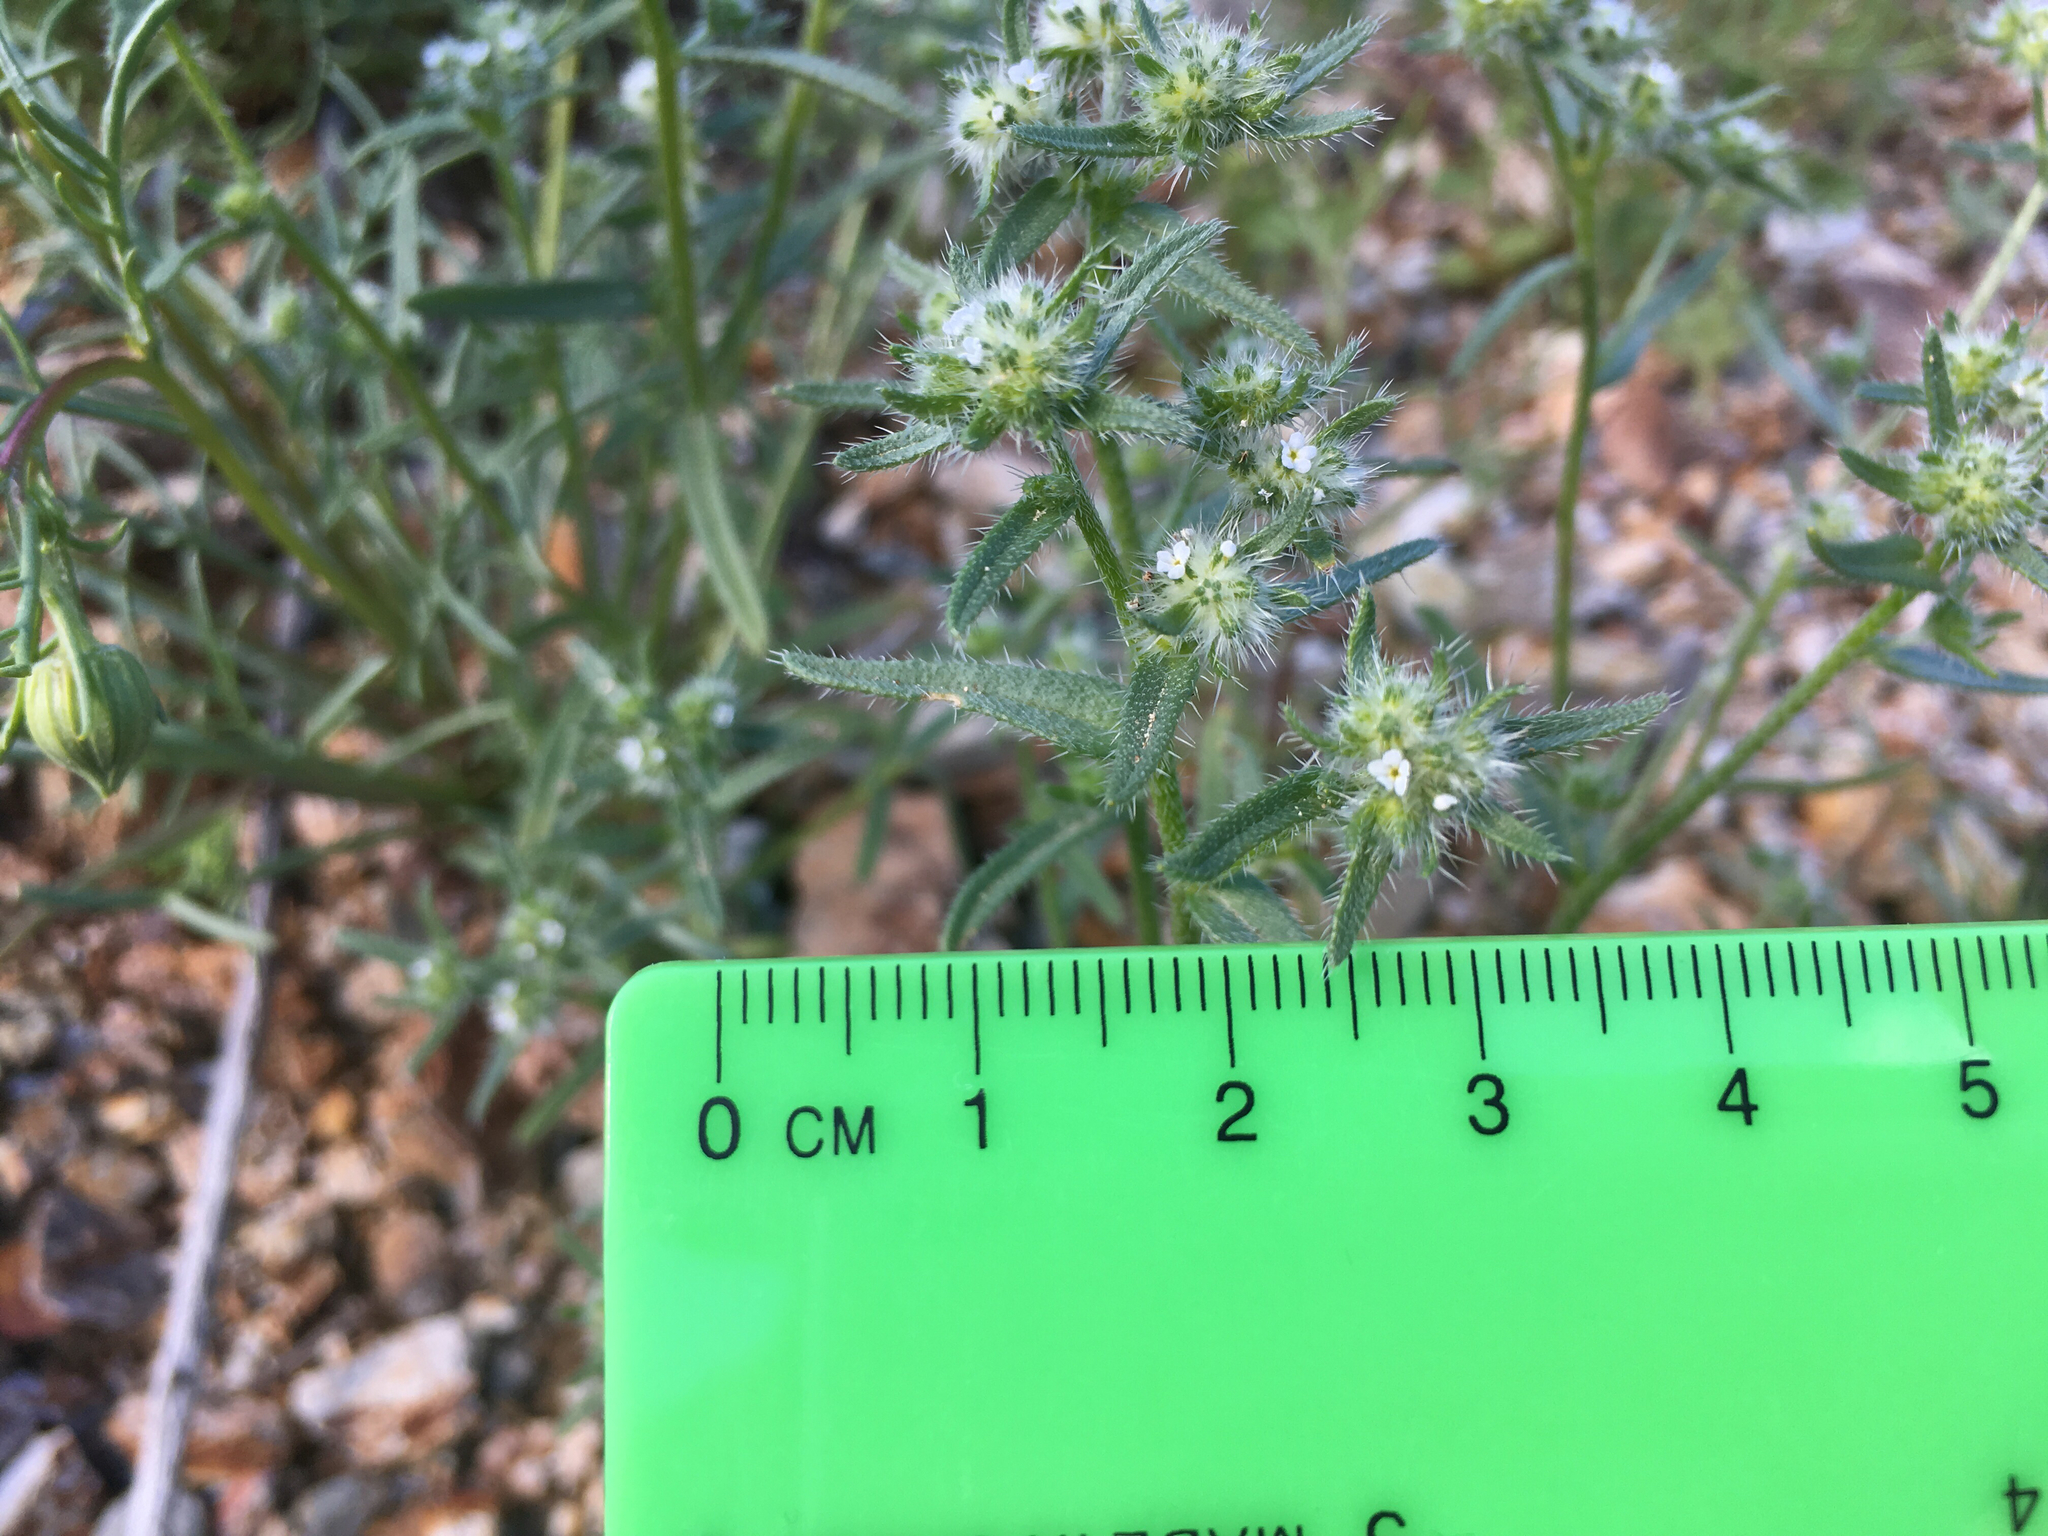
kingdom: Plantae
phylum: Tracheophyta
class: Magnoliopsida
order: Boraginales
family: Boraginaceae
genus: Cryptantha
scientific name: Cryptantha maritima
